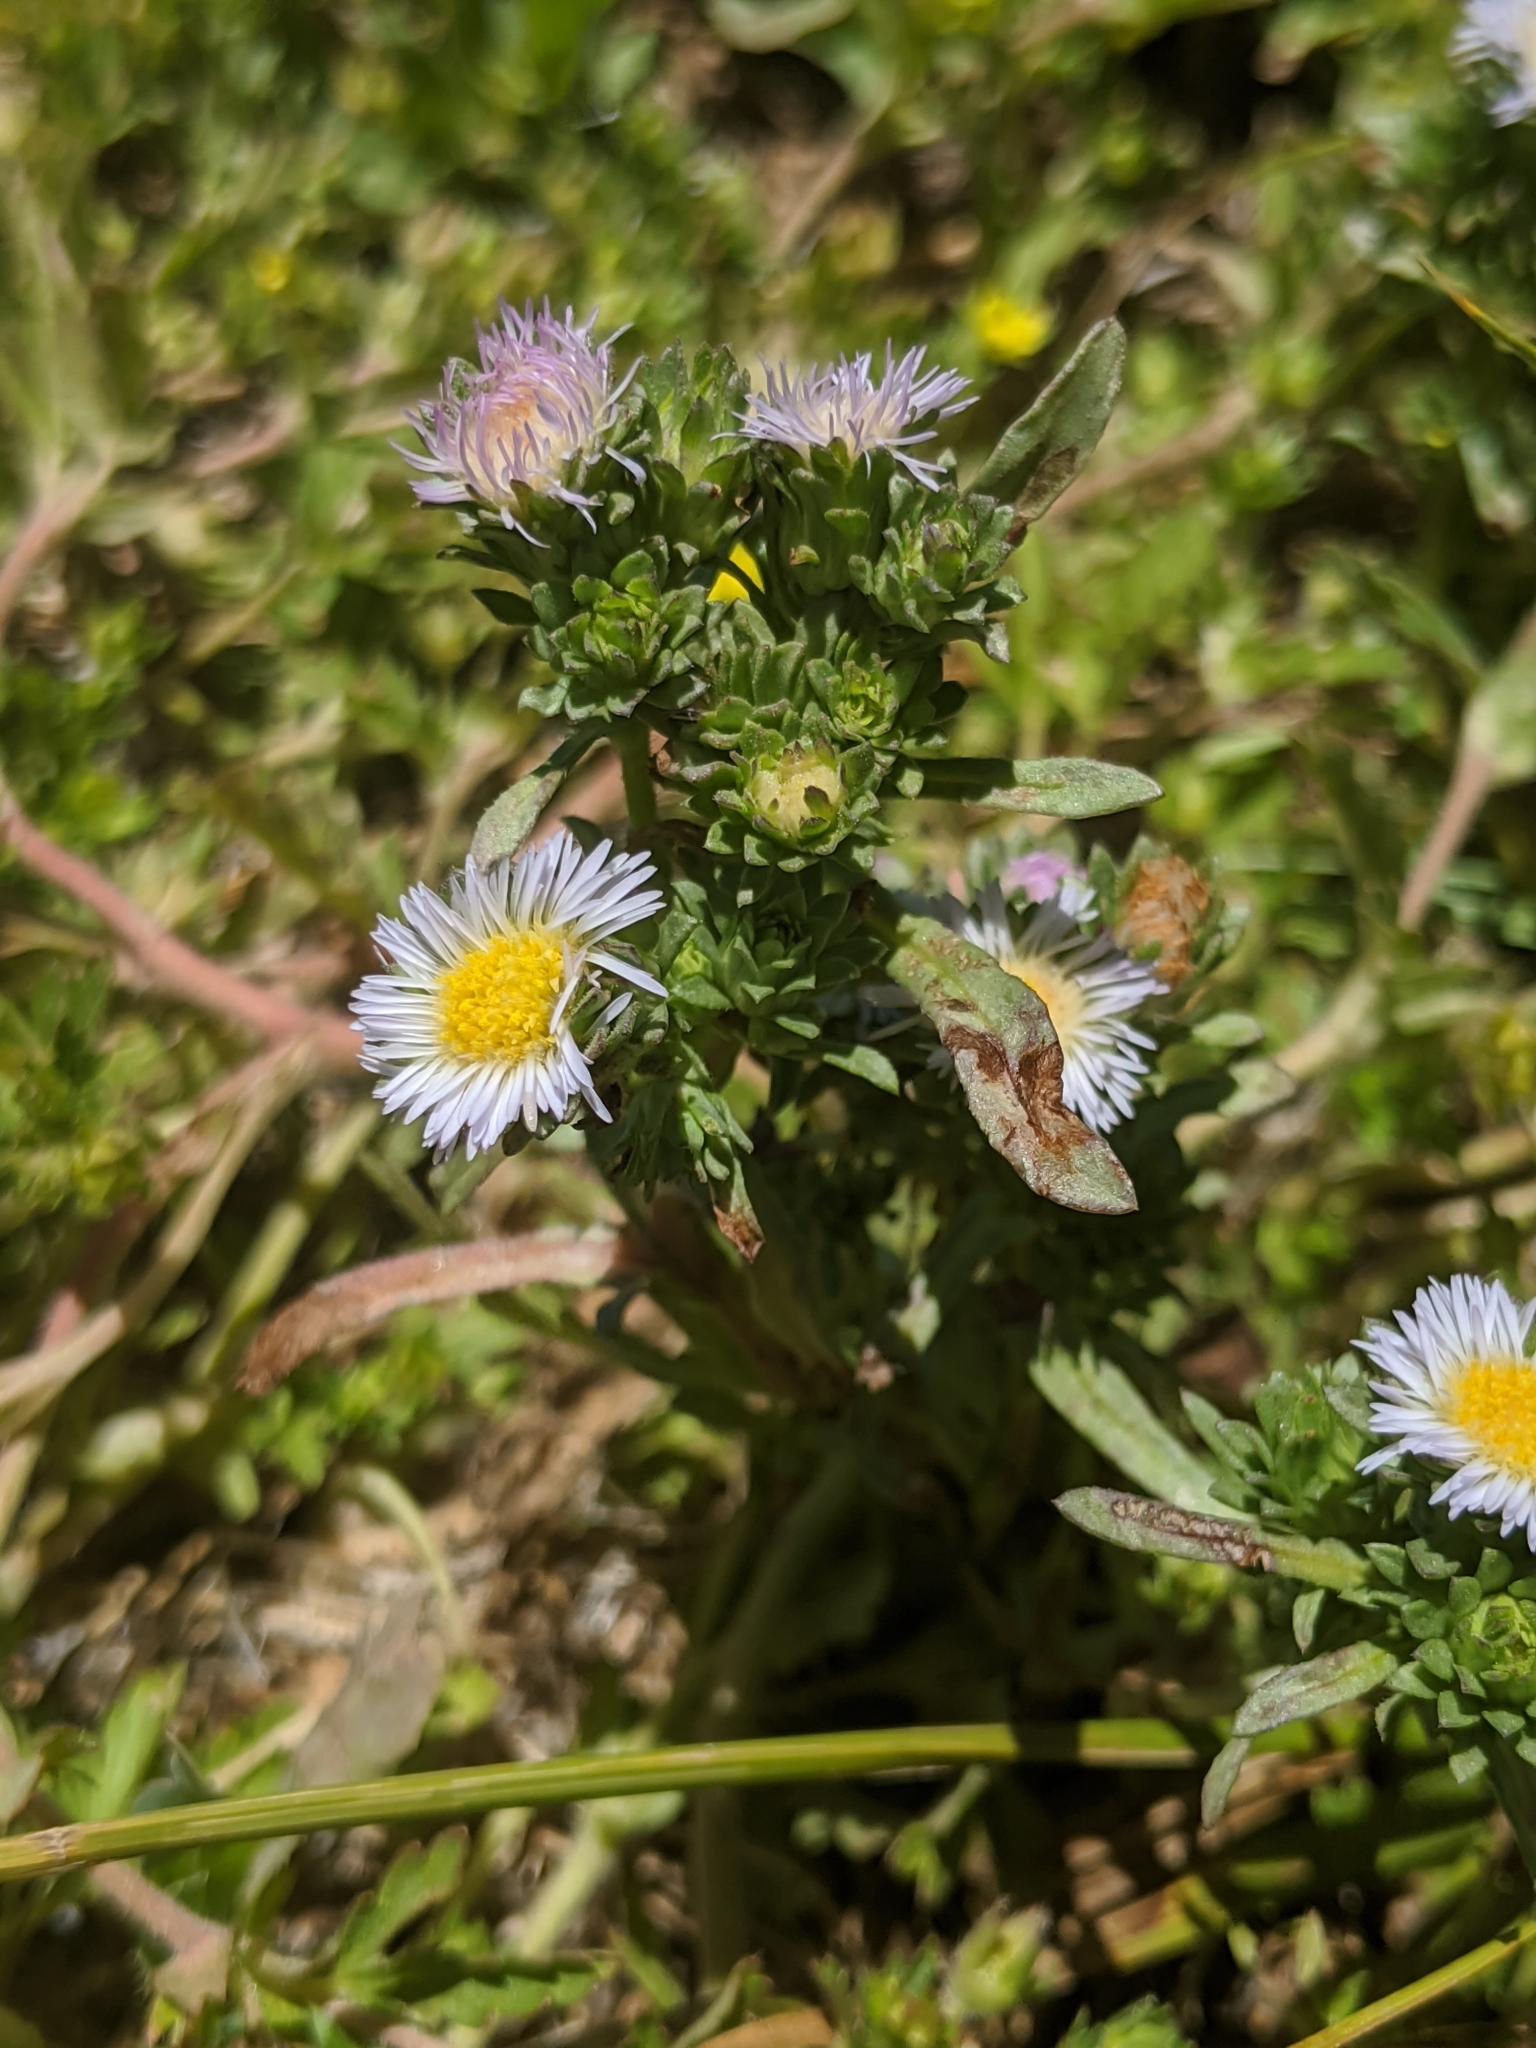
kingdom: Plantae
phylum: Tracheophyta
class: Magnoliopsida
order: Asterales
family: Asteraceae
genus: Symphyotrichum
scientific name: Symphyotrichum frondosum
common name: Leafy aster
